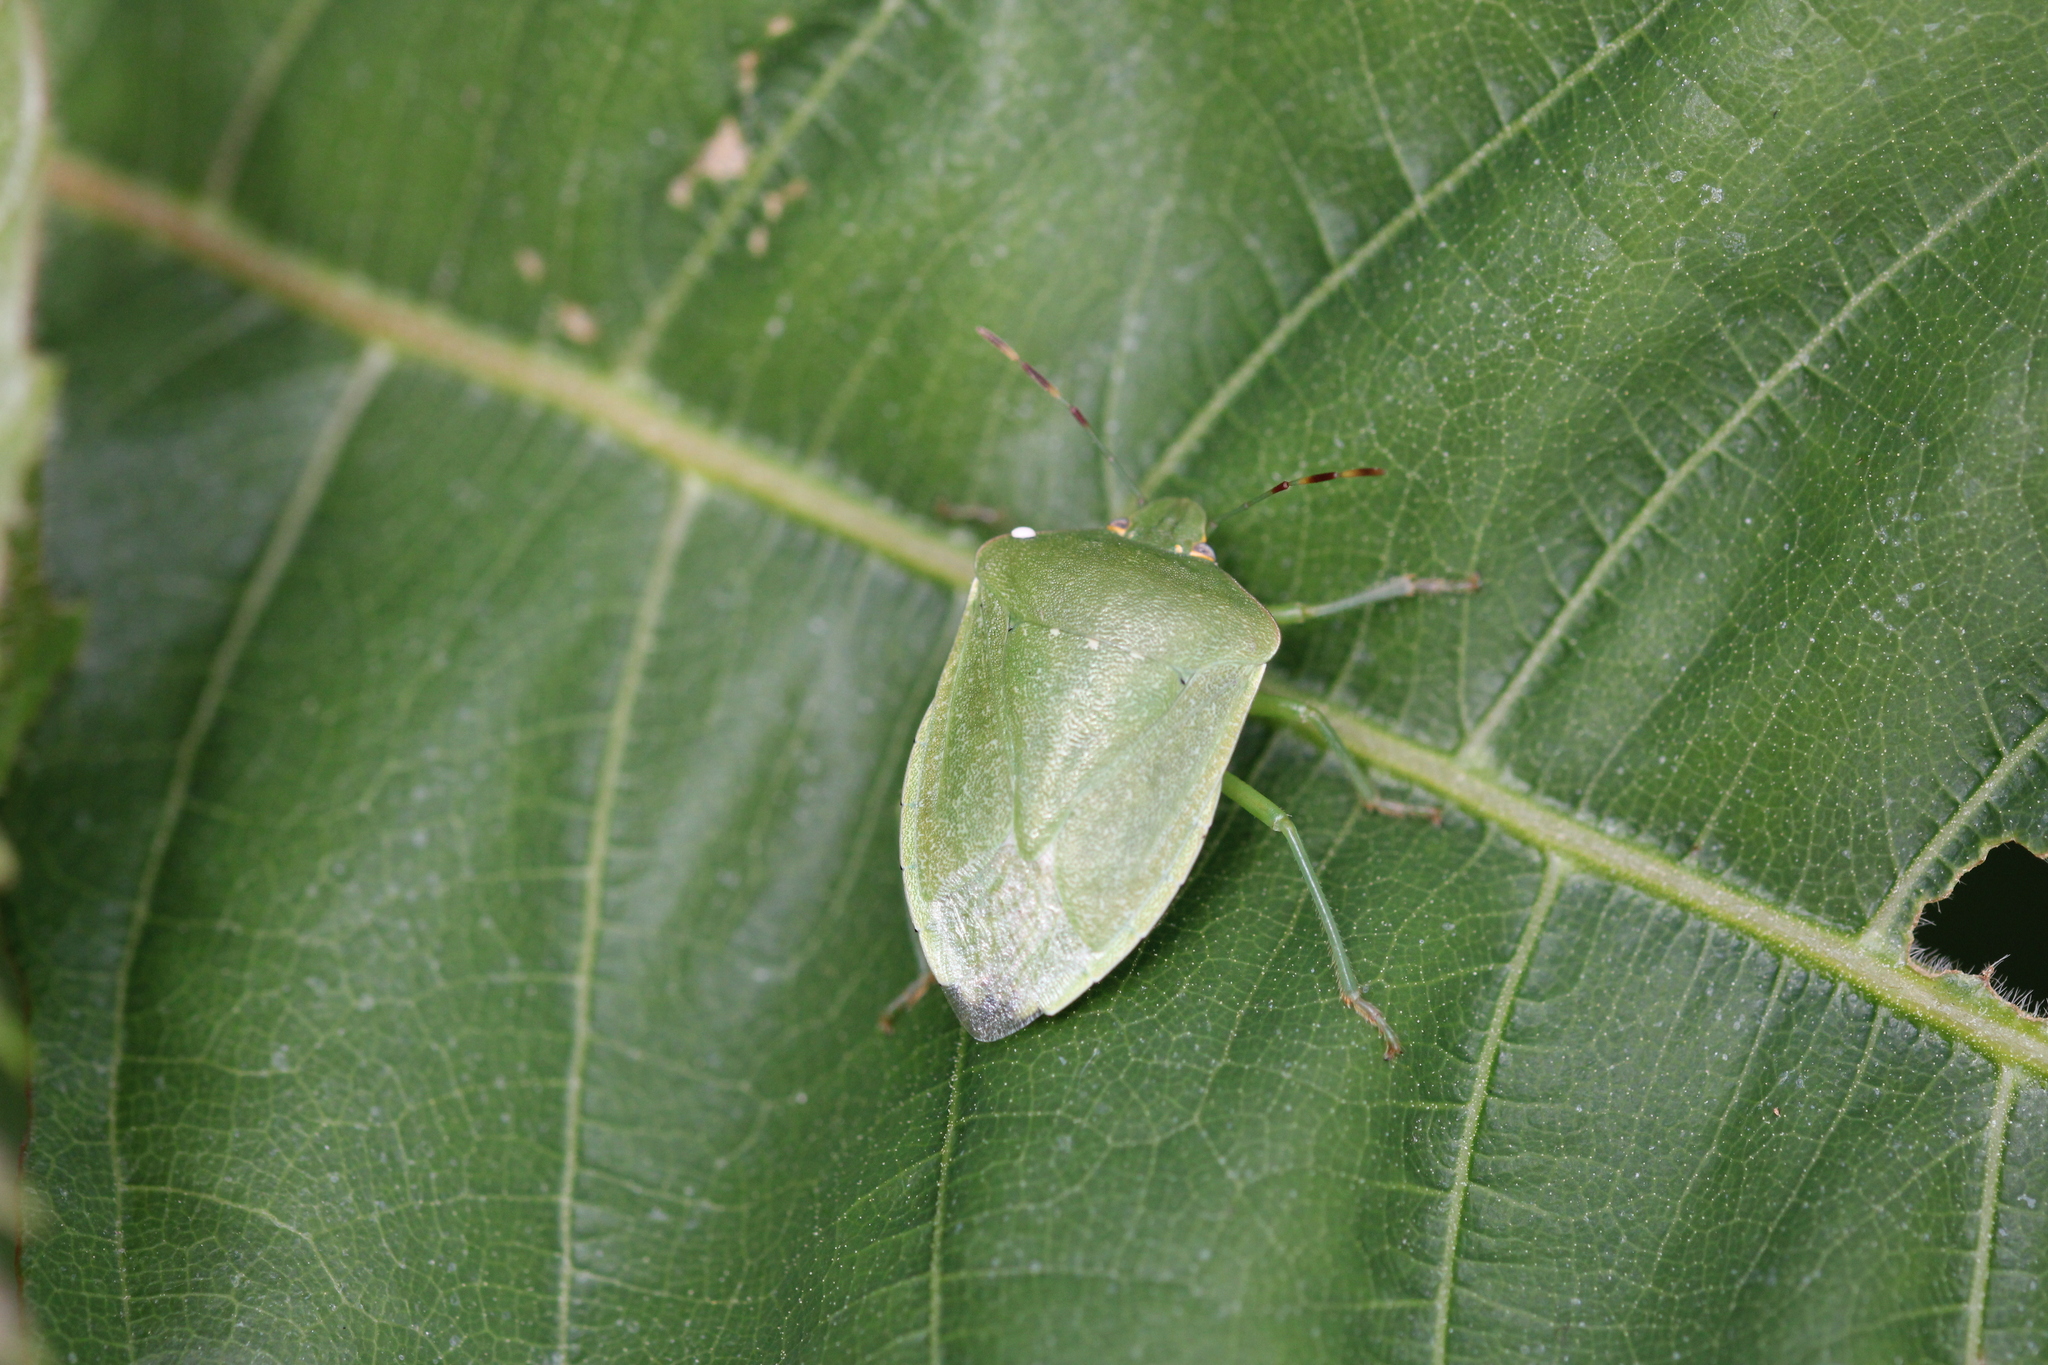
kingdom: Animalia
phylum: Arthropoda
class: Insecta
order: Hemiptera
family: Pentatomidae
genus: Nezara
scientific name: Nezara viridula
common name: Southern green stink bug
